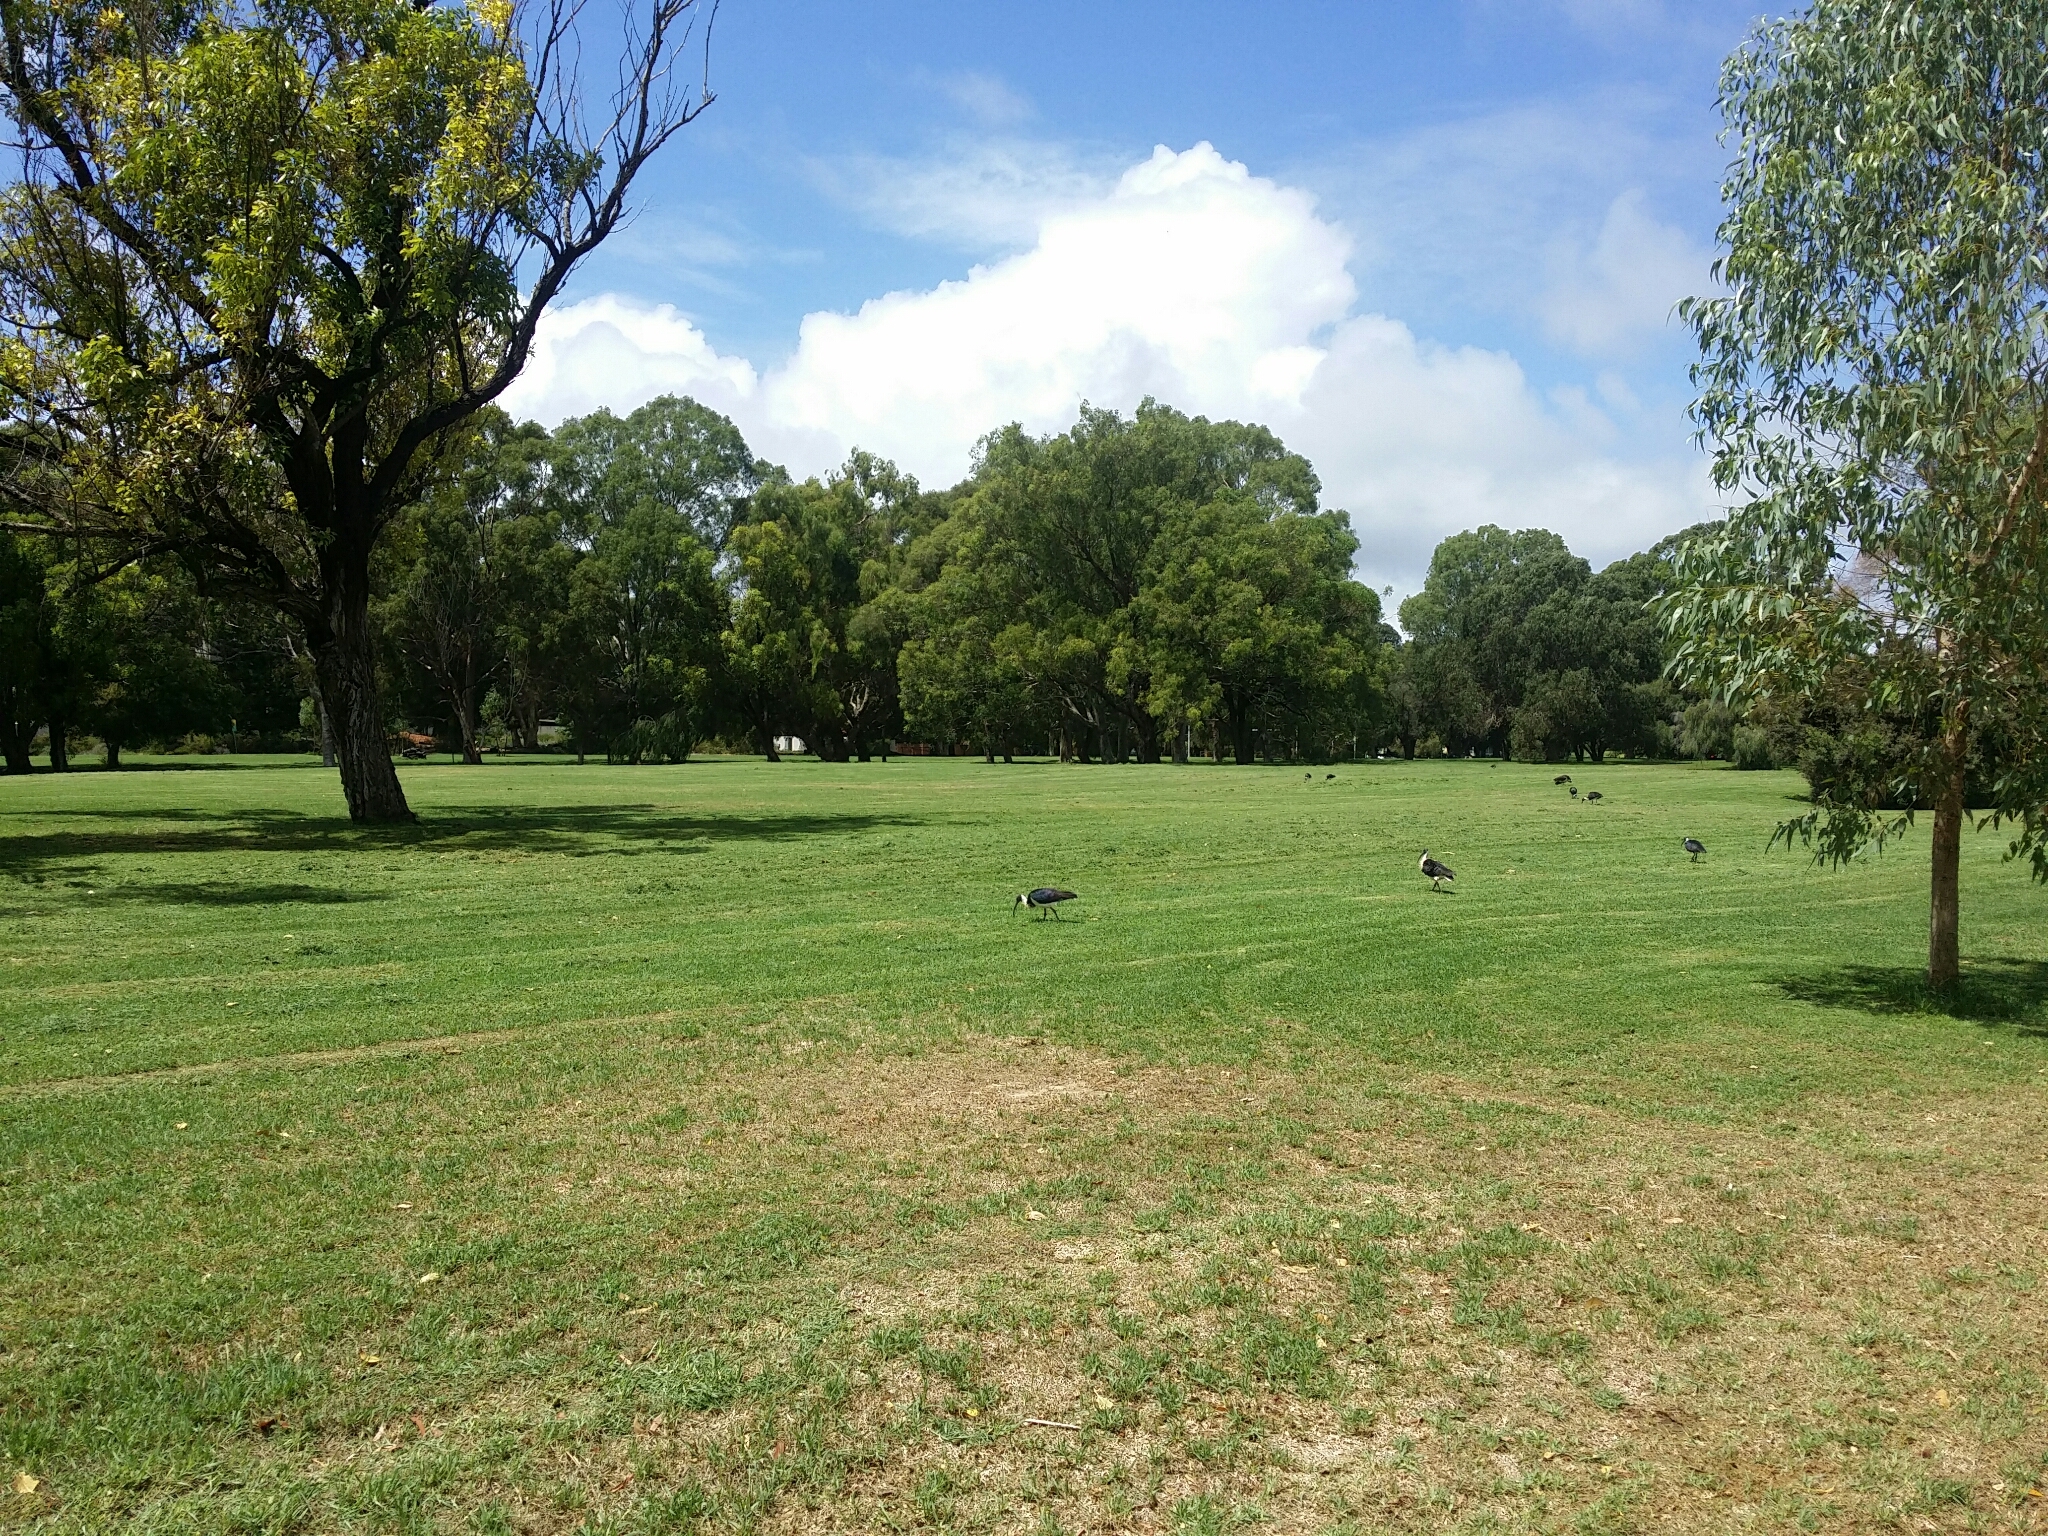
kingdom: Animalia
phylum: Chordata
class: Aves
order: Pelecaniformes
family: Threskiornithidae
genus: Threskiornis
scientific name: Threskiornis spinicollis
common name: Straw-necked ibis
